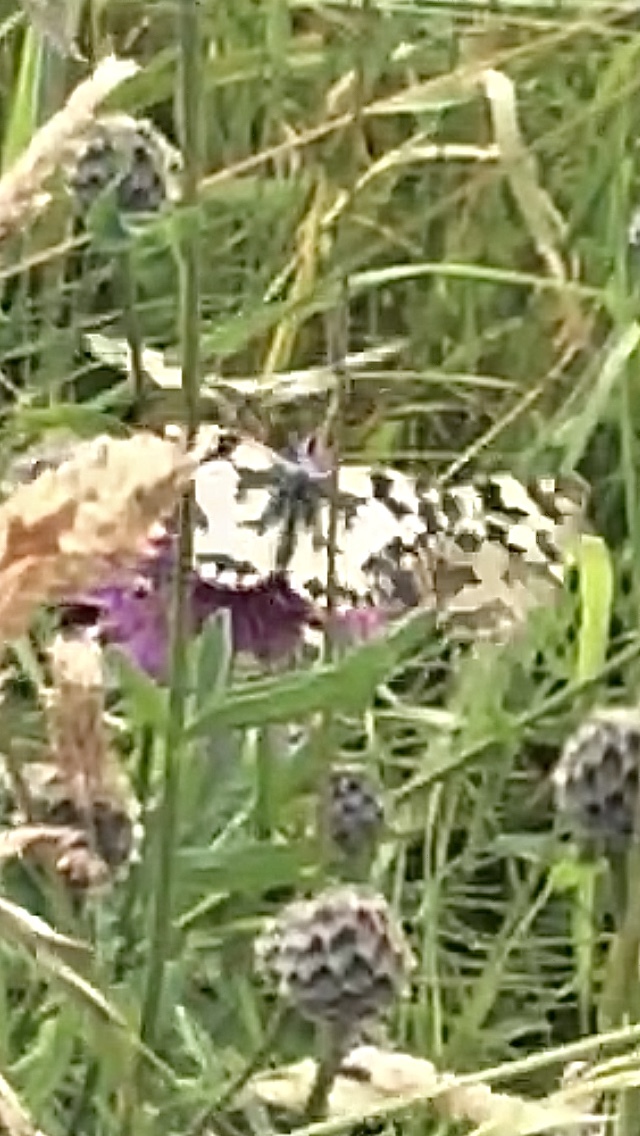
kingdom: Animalia
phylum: Arthropoda
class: Insecta
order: Lepidoptera
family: Nymphalidae
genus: Melanargia
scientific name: Melanargia galathea
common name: Marbled white
